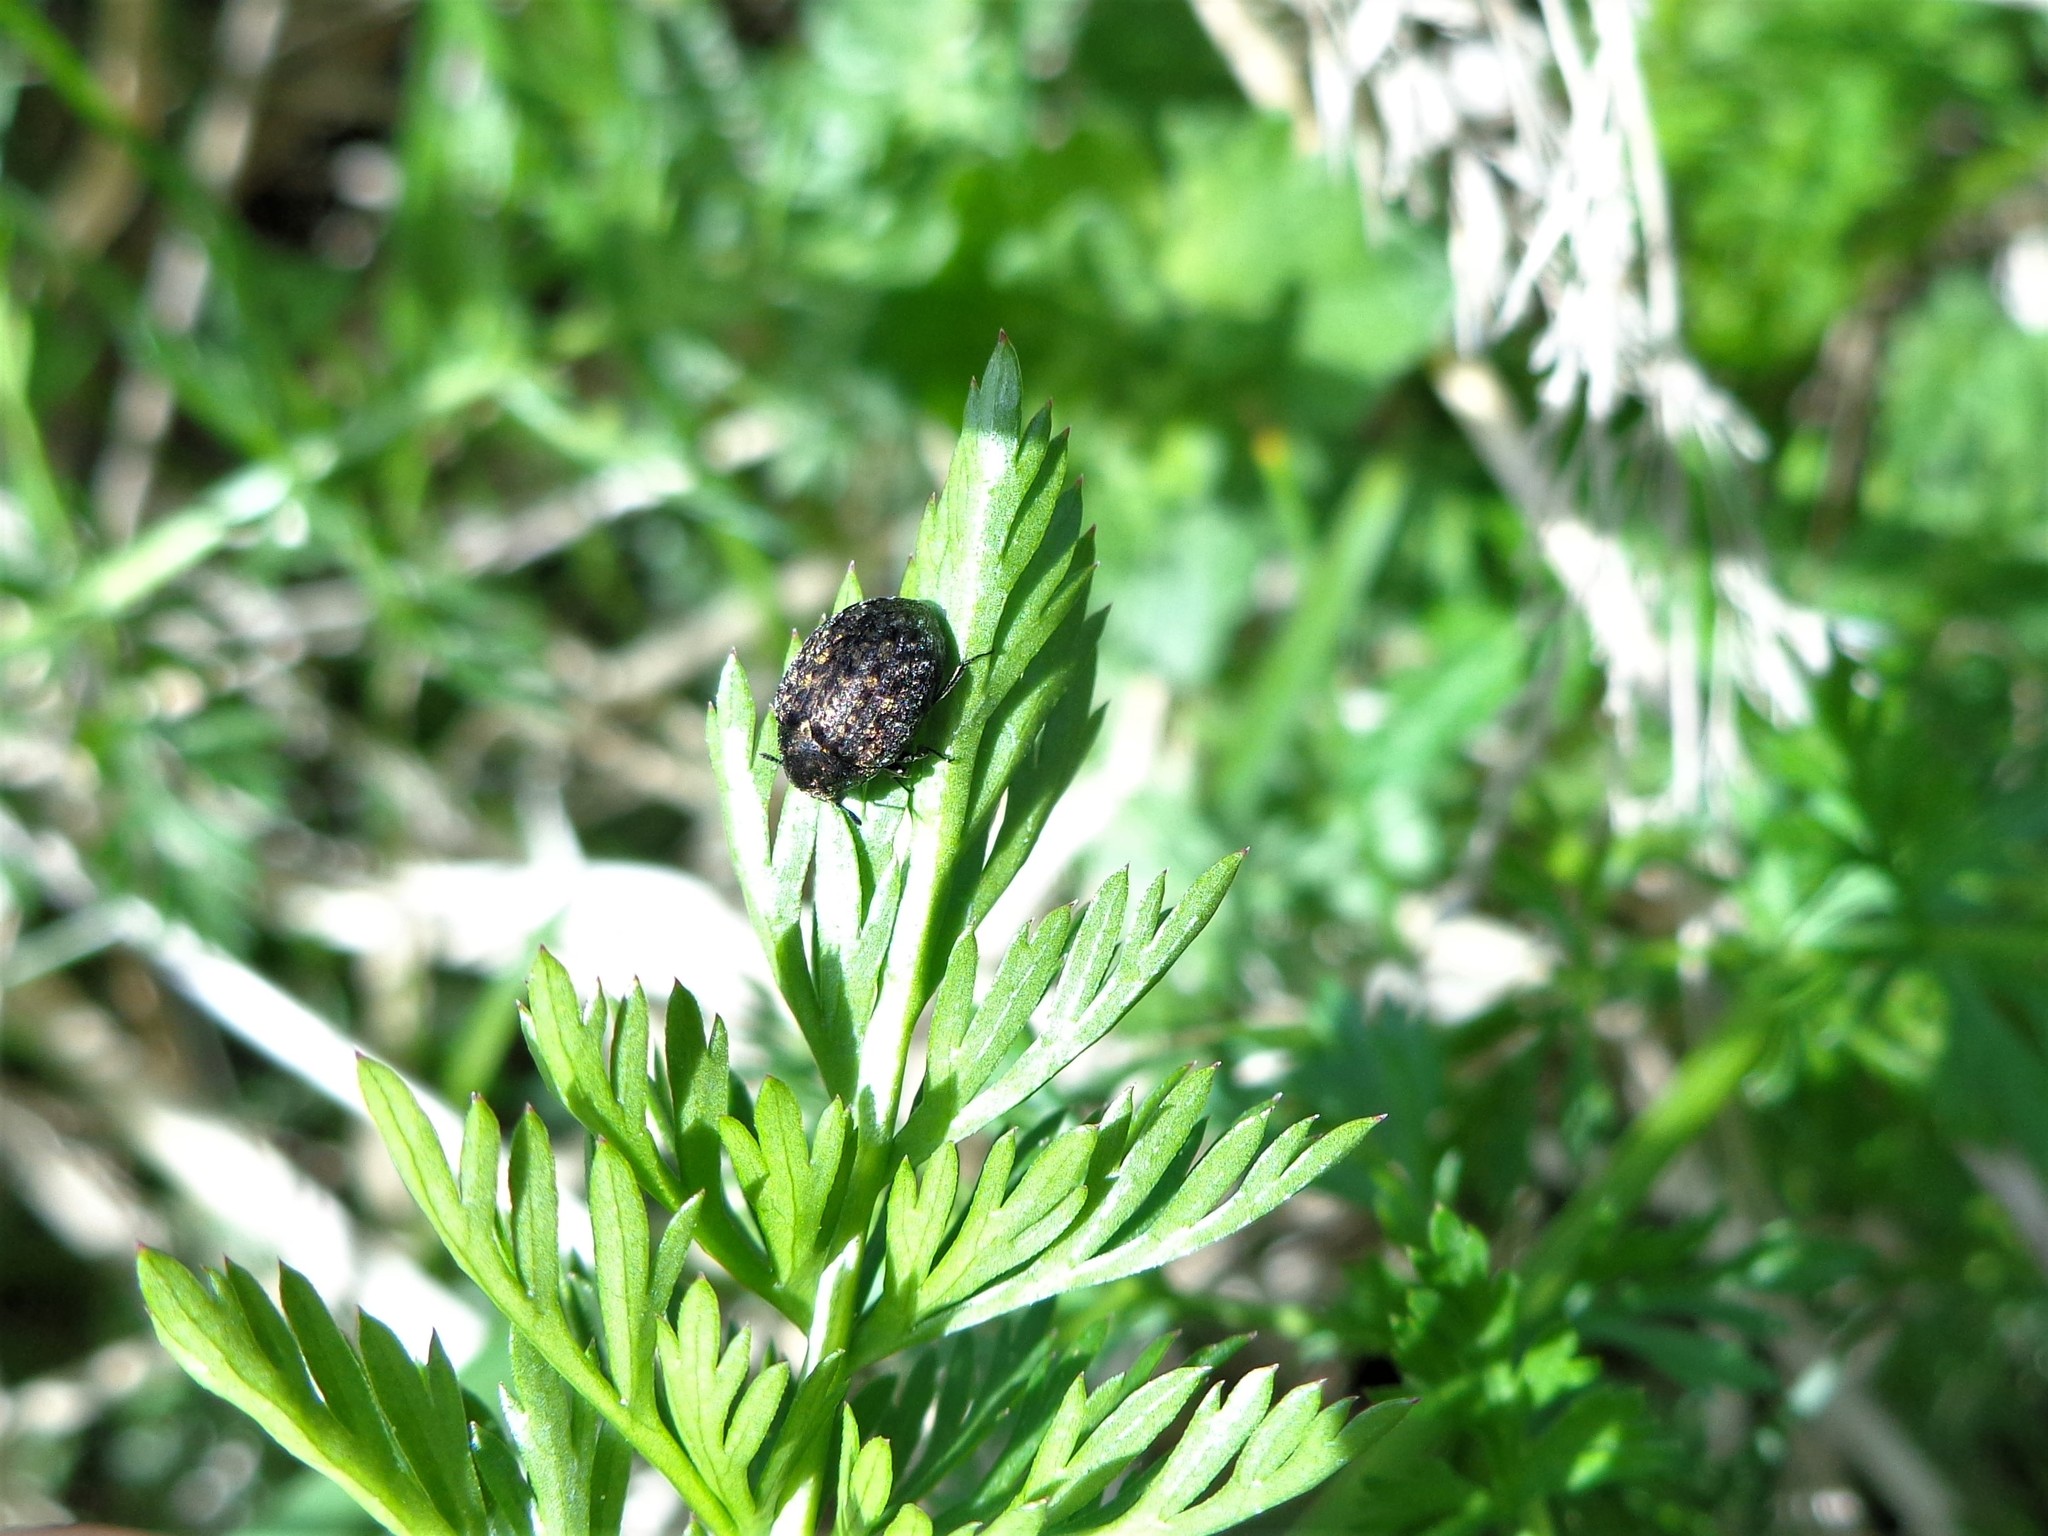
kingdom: Animalia
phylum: Arthropoda
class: Insecta
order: Coleoptera
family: Byrrhidae
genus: Cytilus
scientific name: Cytilus sericeus
